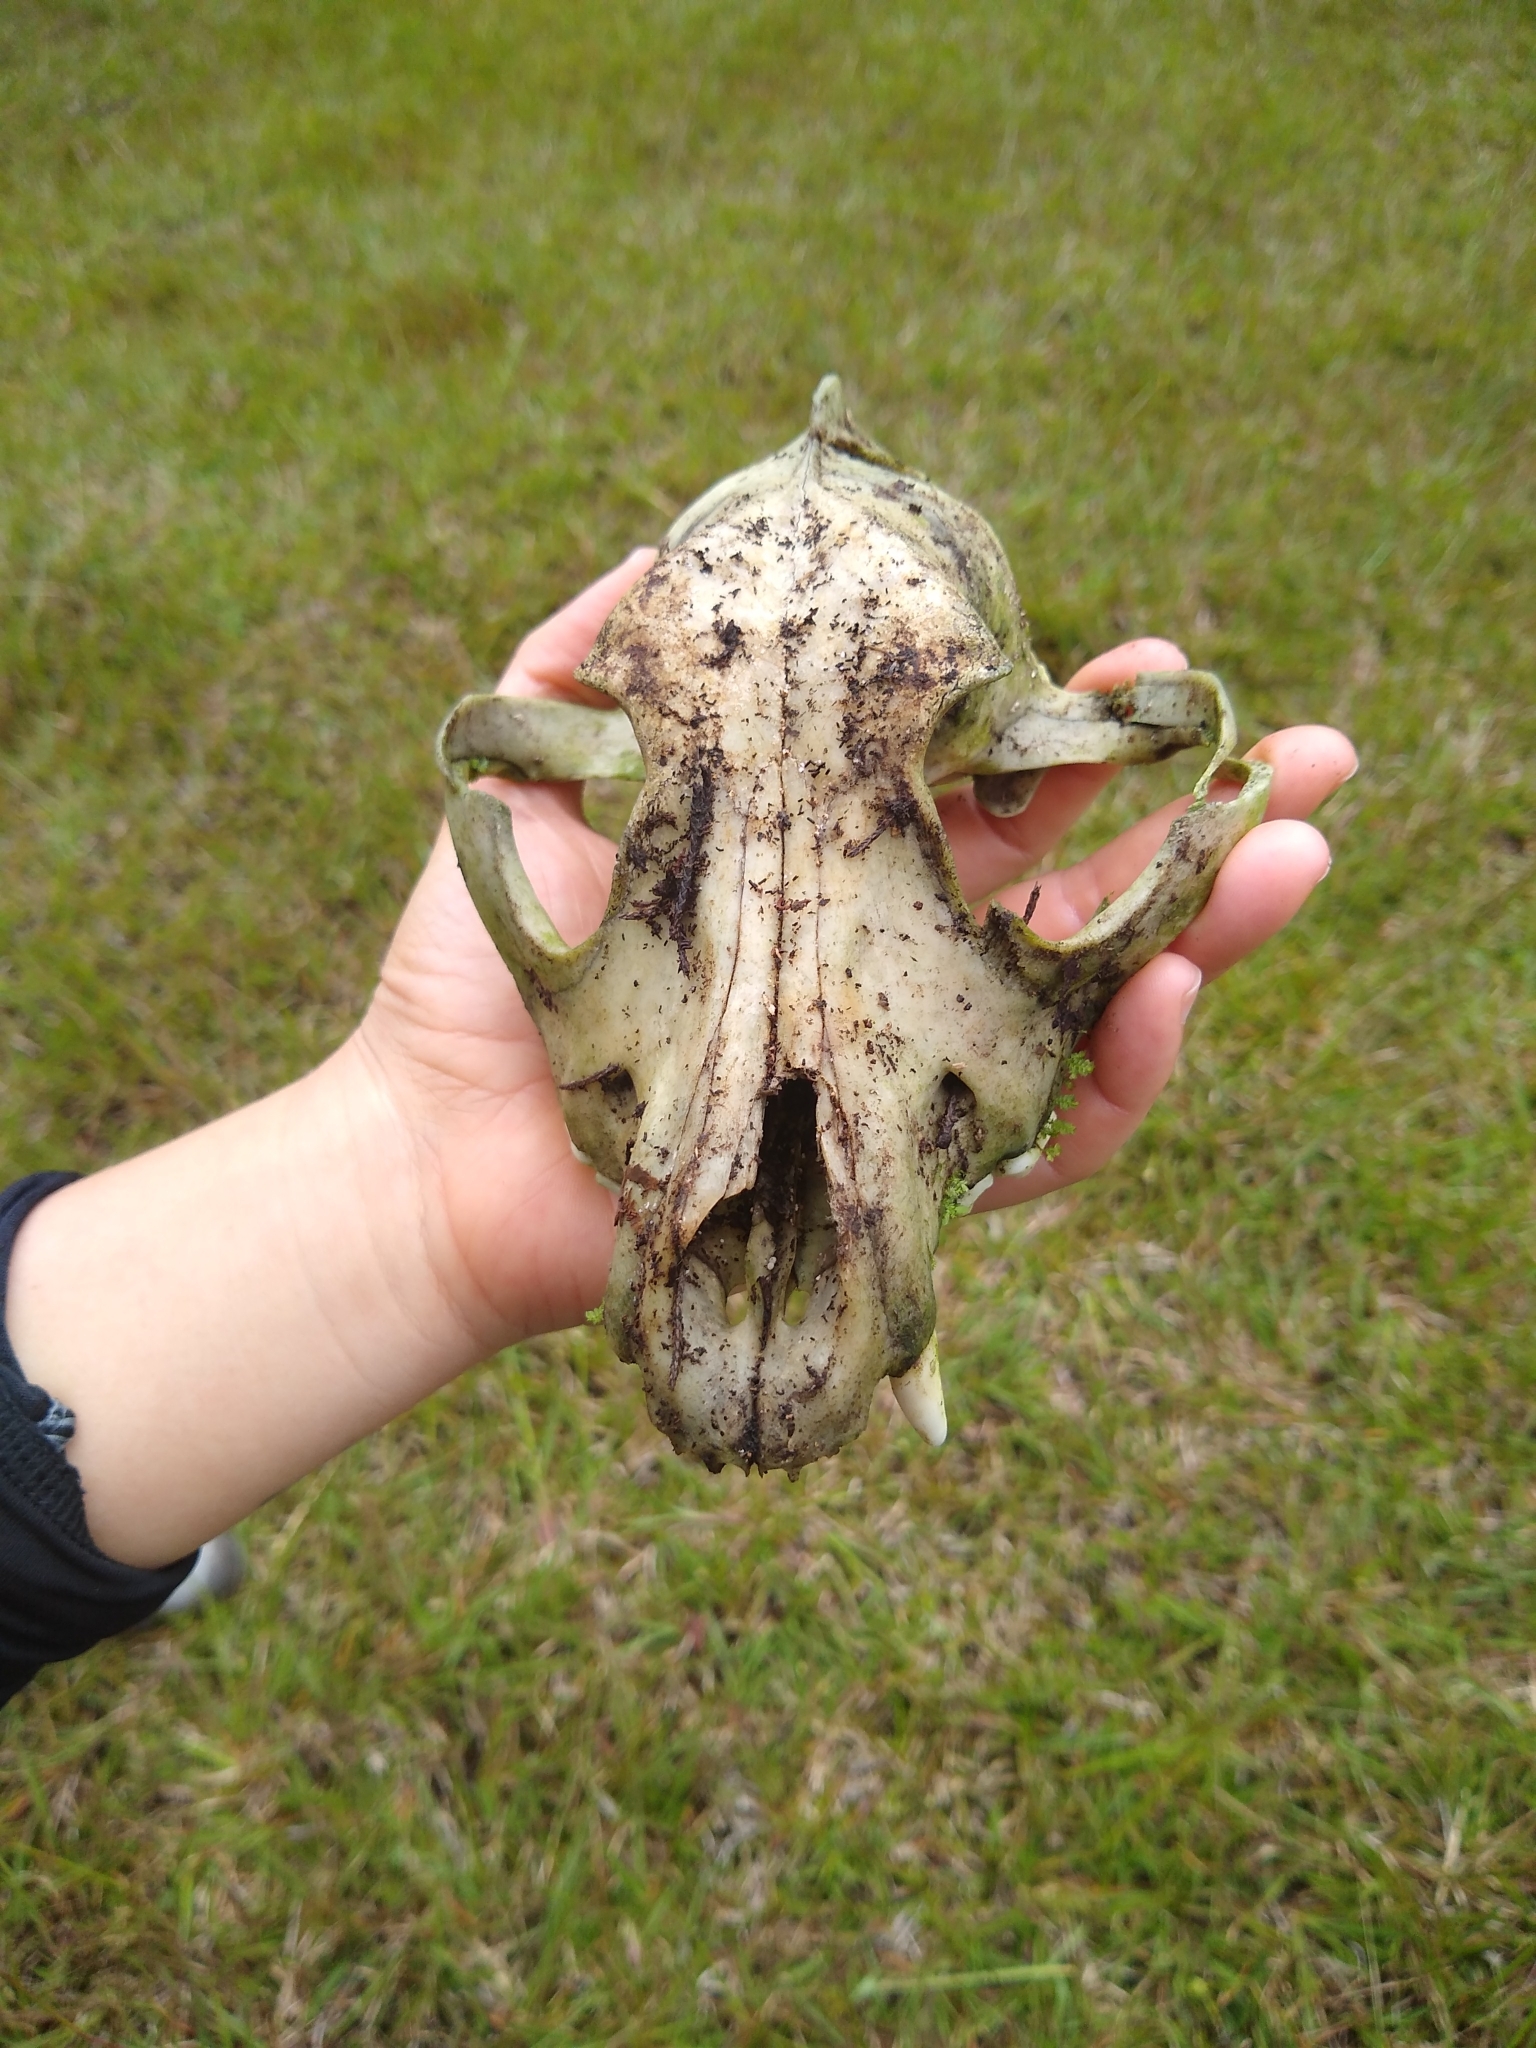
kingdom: Animalia
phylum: Chordata
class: Mammalia
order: Carnivora
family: Canidae
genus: Canis
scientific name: Canis lupus
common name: Gray wolf
